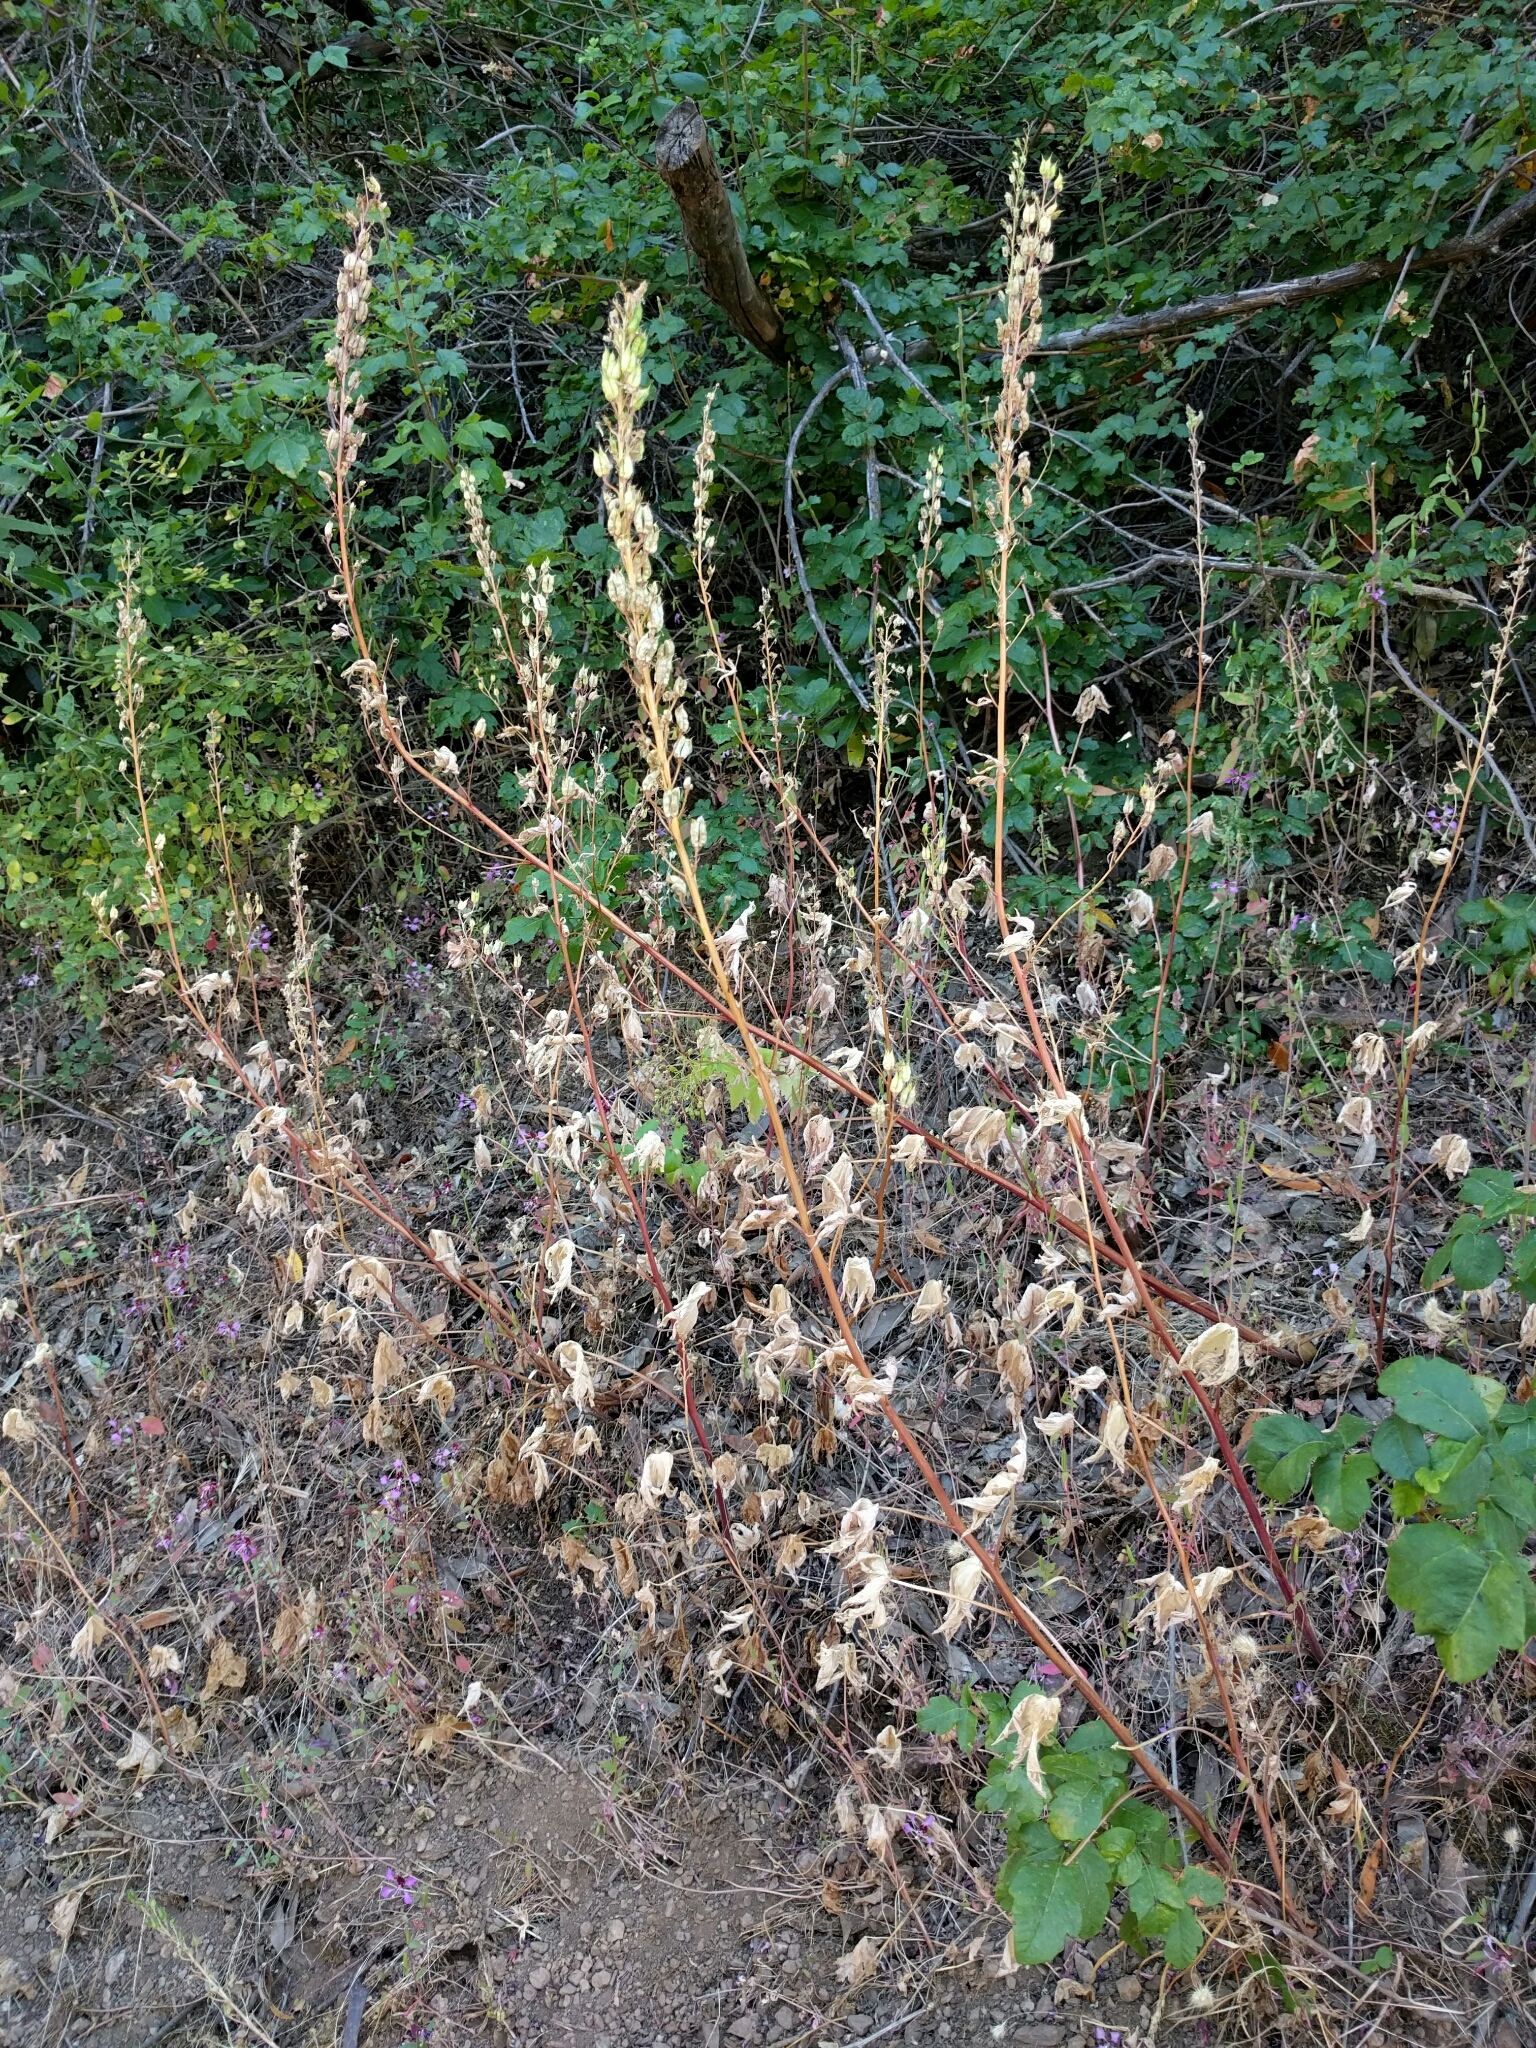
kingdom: Plantae
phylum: Tracheophyta
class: Magnoliopsida
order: Ranunculales
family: Ranunculaceae
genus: Delphinium
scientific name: Delphinium californicum
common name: California larkspur
